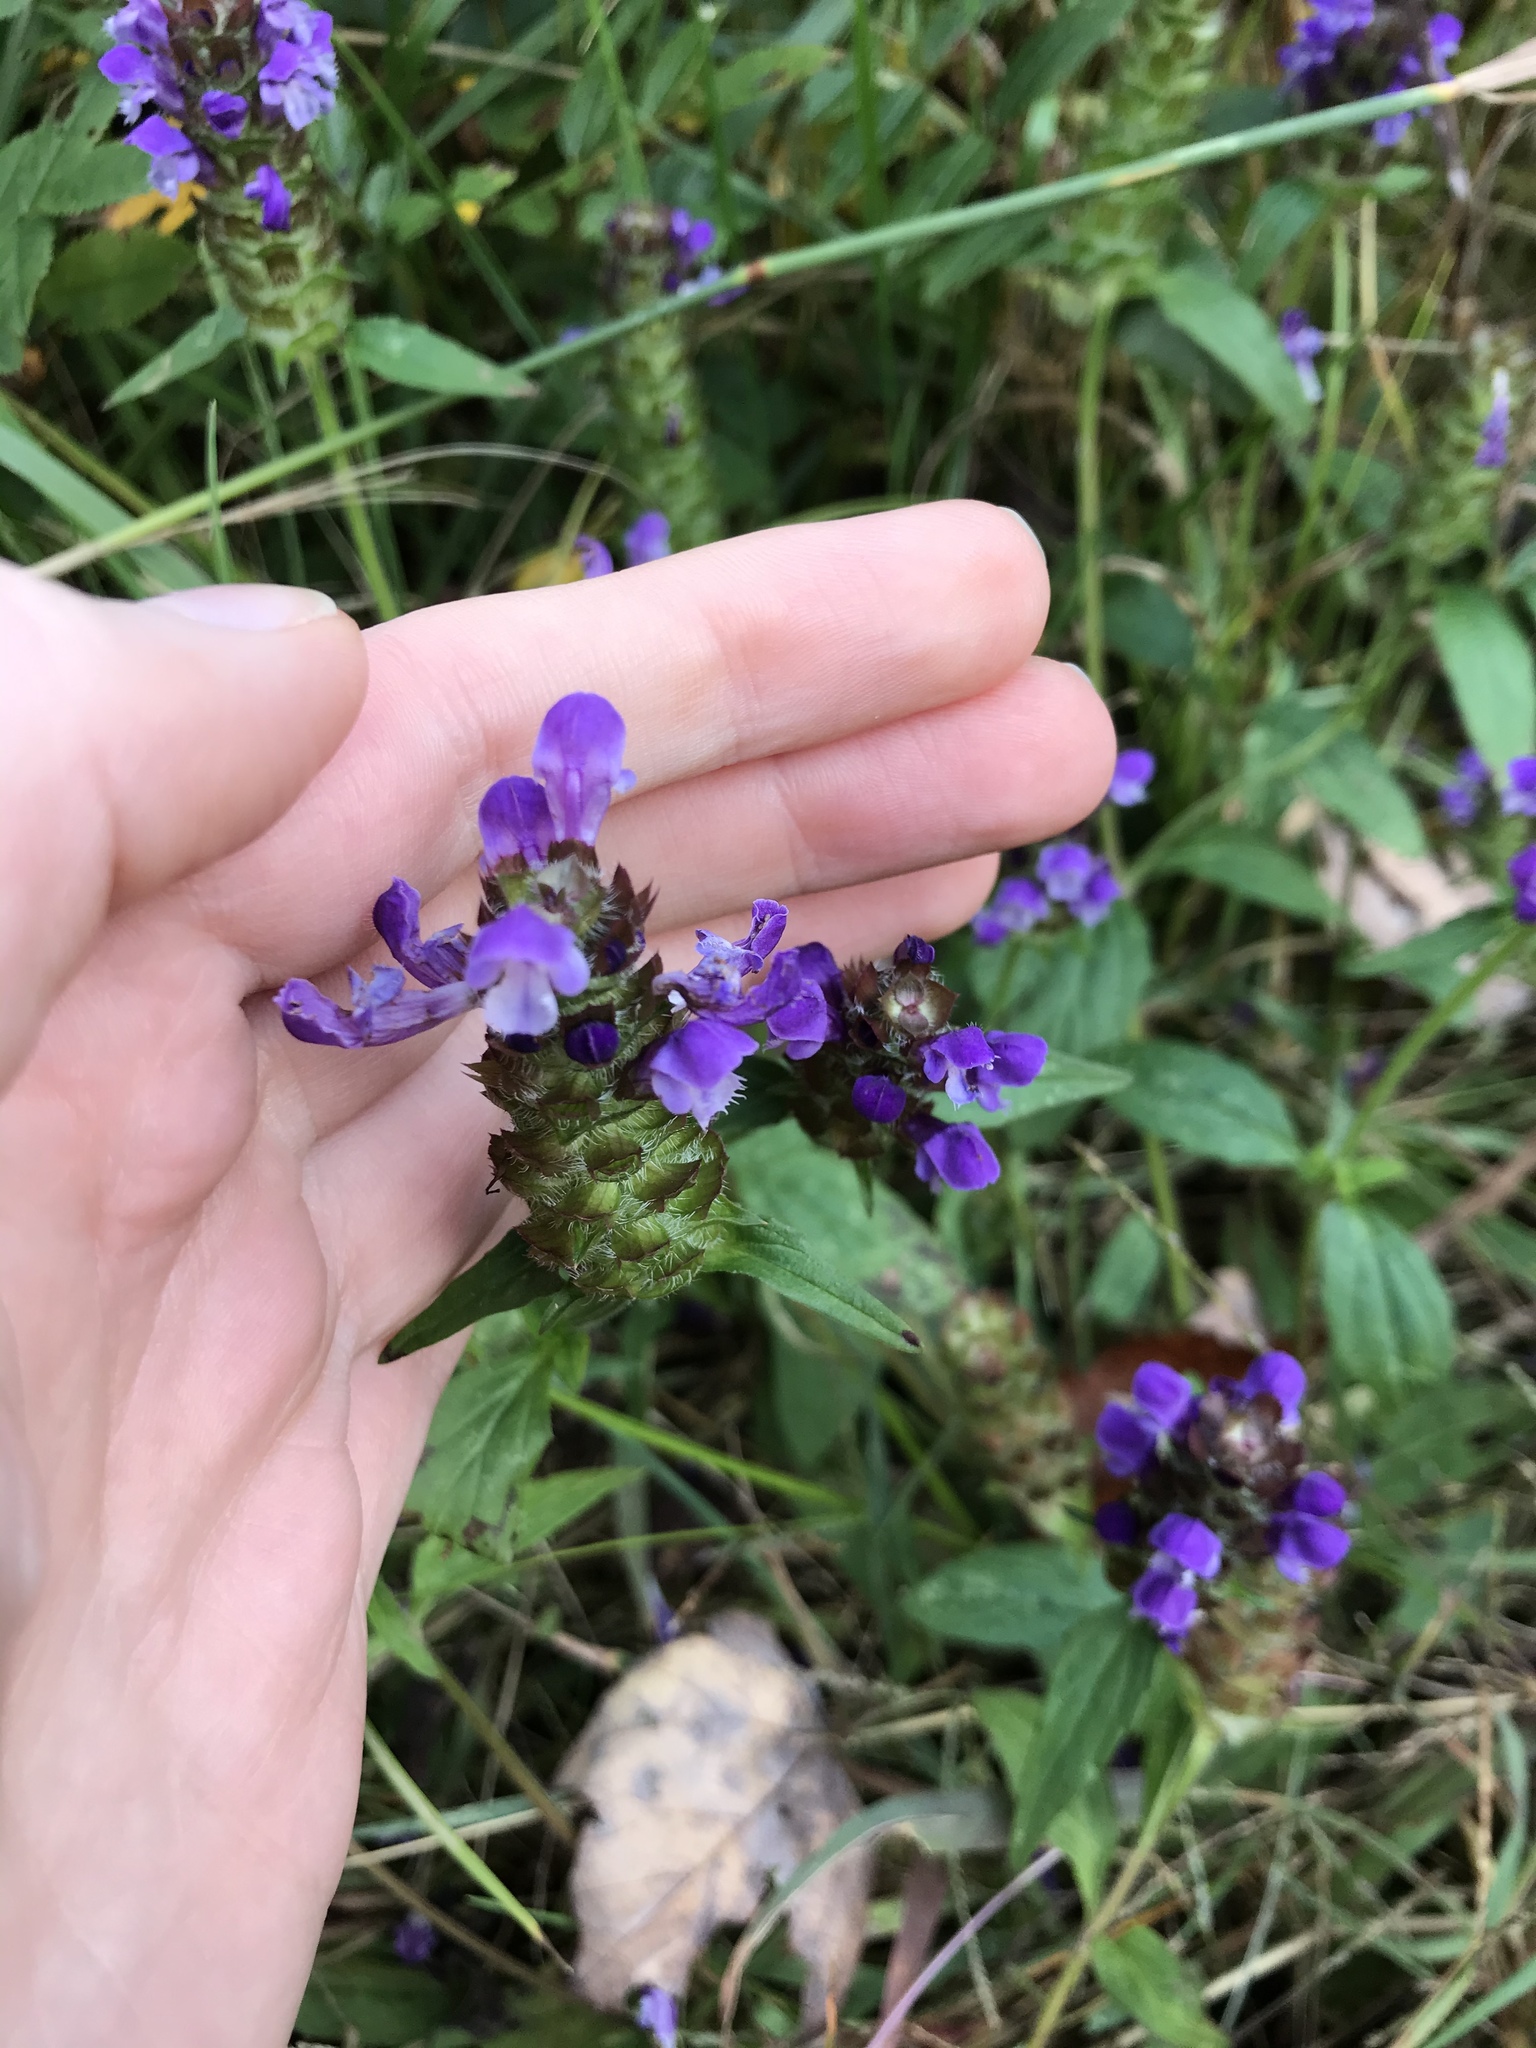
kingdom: Plantae
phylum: Tracheophyta
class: Magnoliopsida
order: Lamiales
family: Lamiaceae
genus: Prunella
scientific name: Prunella vulgaris
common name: Heal-all
